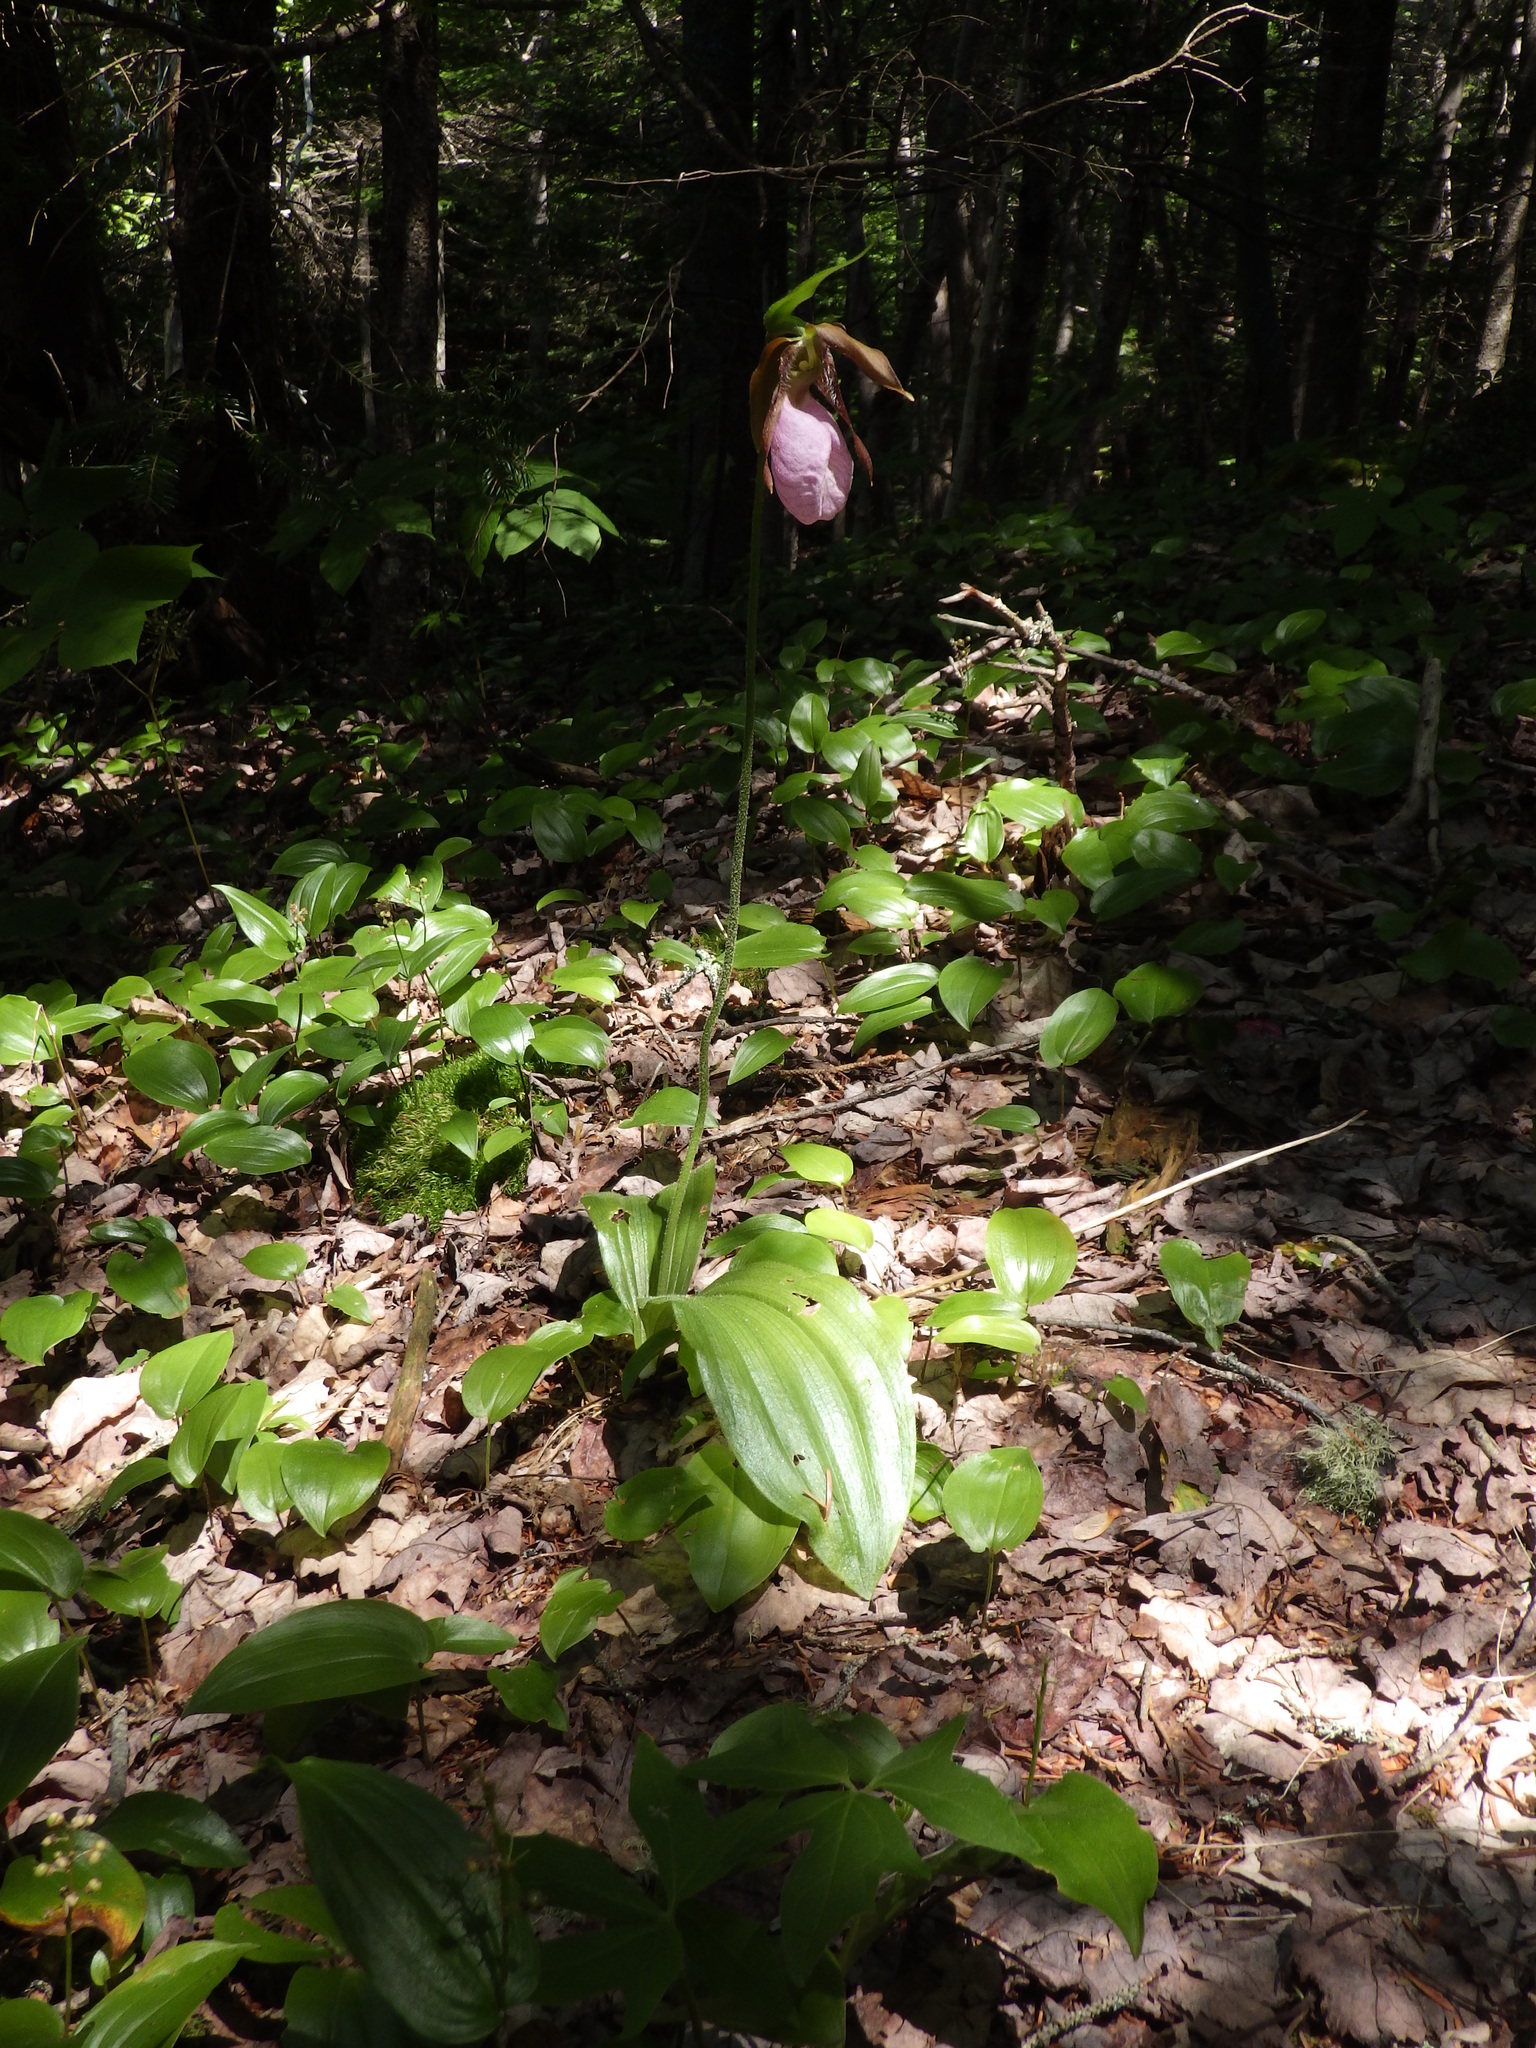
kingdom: Plantae
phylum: Tracheophyta
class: Liliopsida
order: Asparagales
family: Orchidaceae
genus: Cypripedium
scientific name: Cypripedium acaule
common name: Pink lady's-slipper
